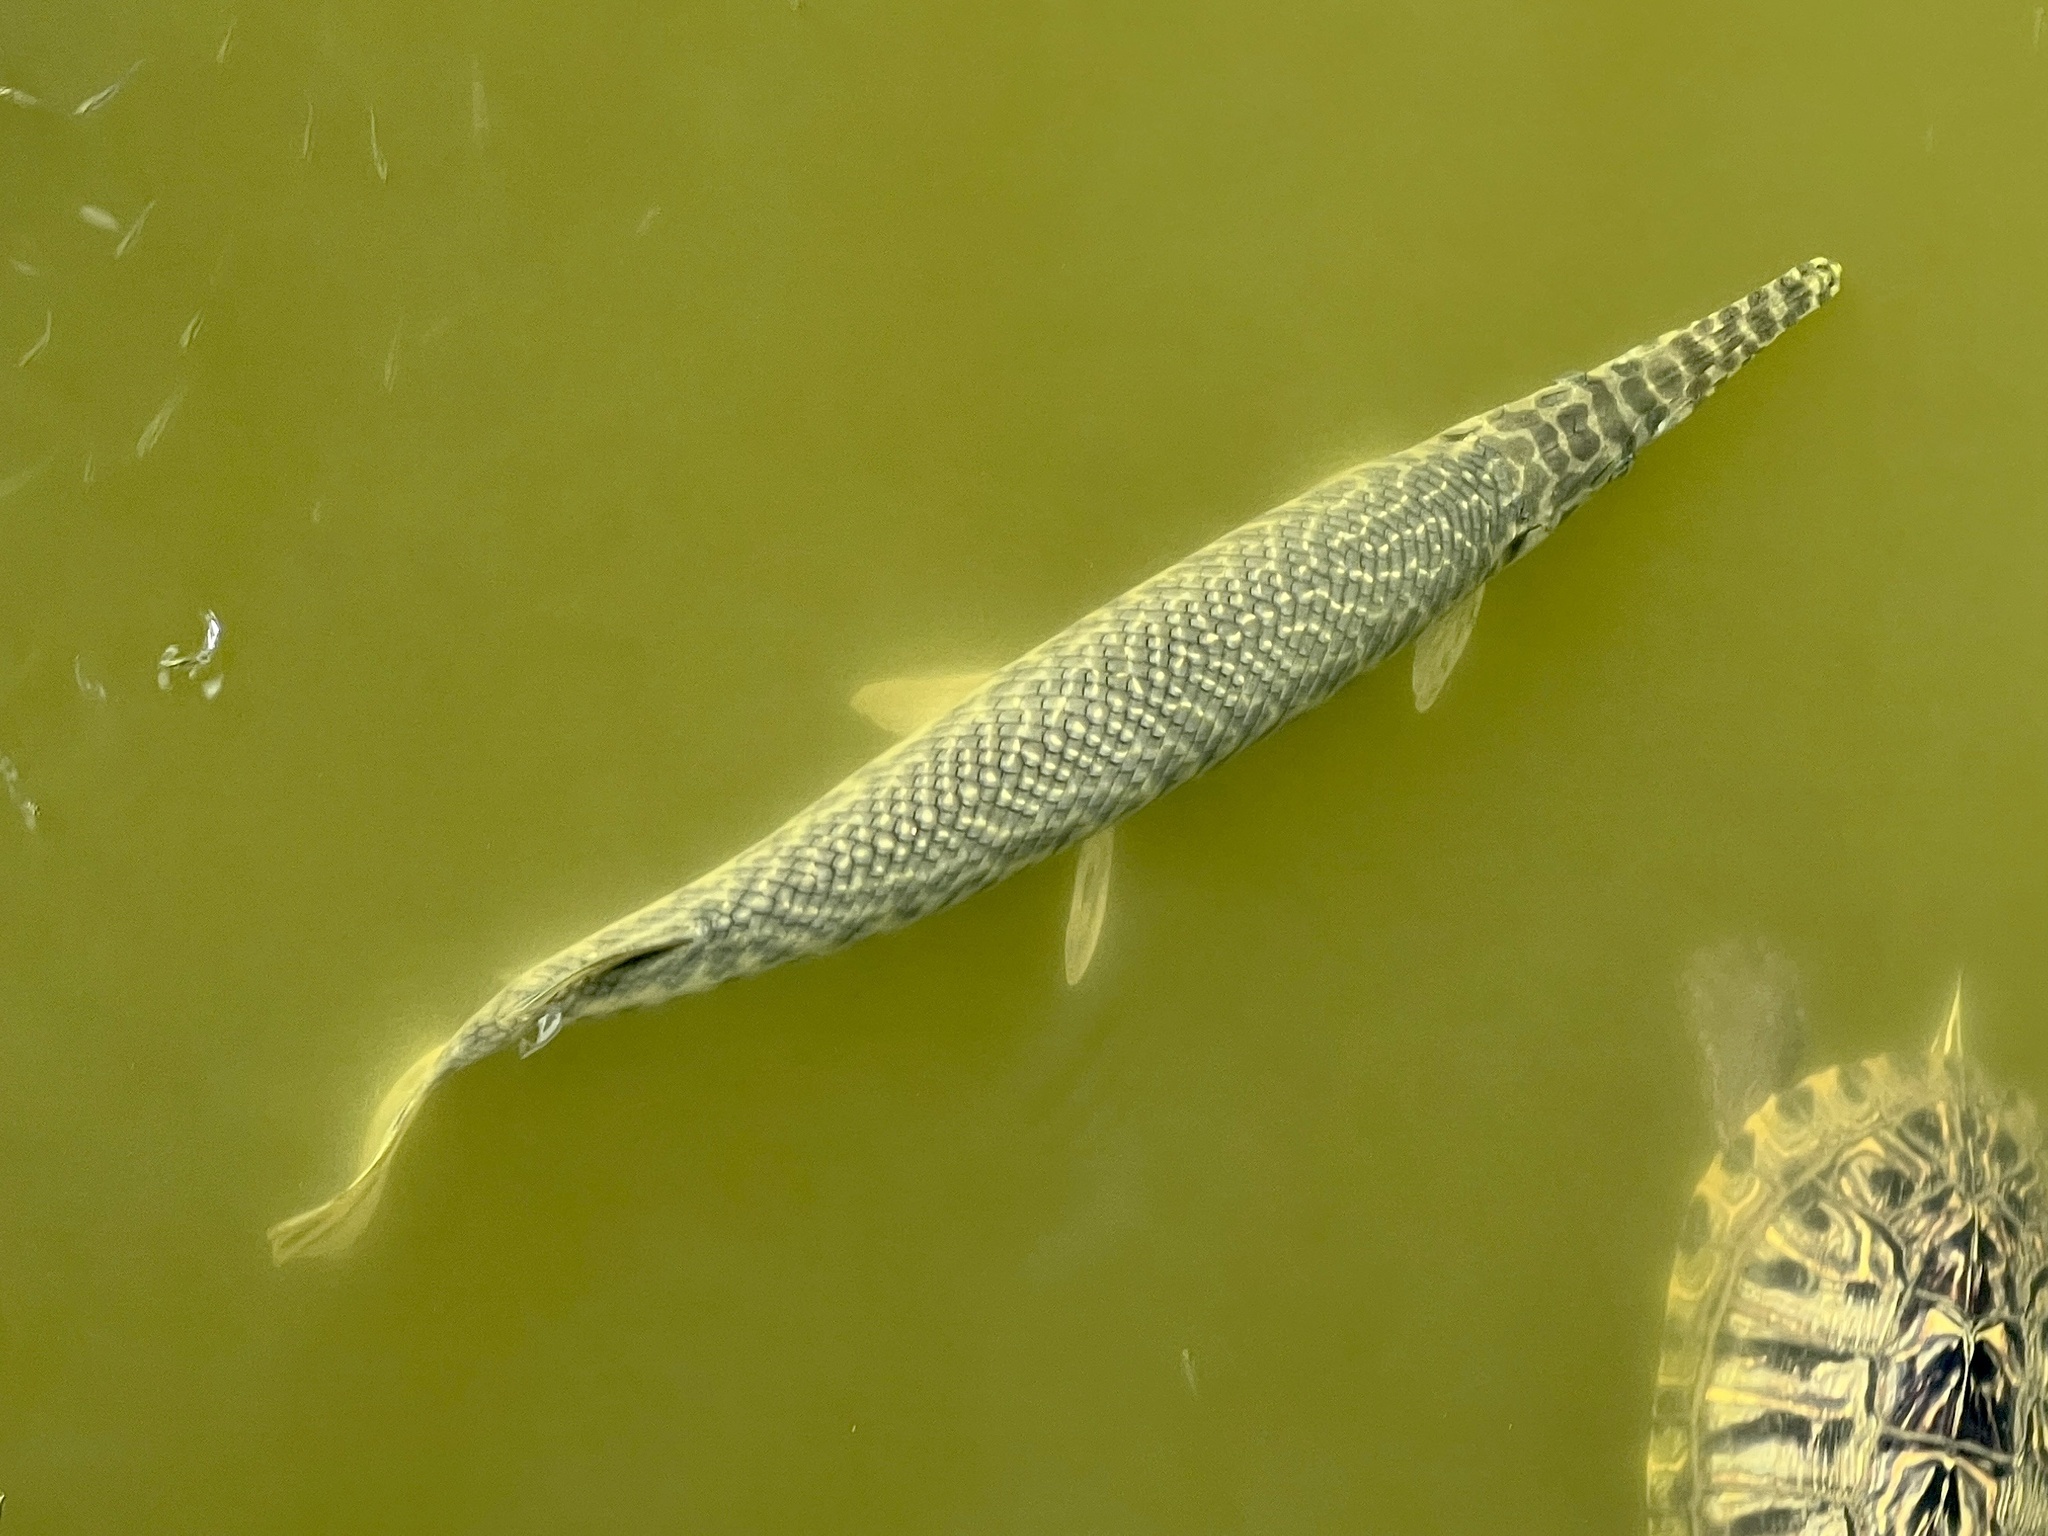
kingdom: Animalia
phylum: Chordata
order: Lepisosteiformes
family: Lepisosteidae
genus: Lepisosteus
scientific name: Lepisosteus oculatus
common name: Spotted gar
